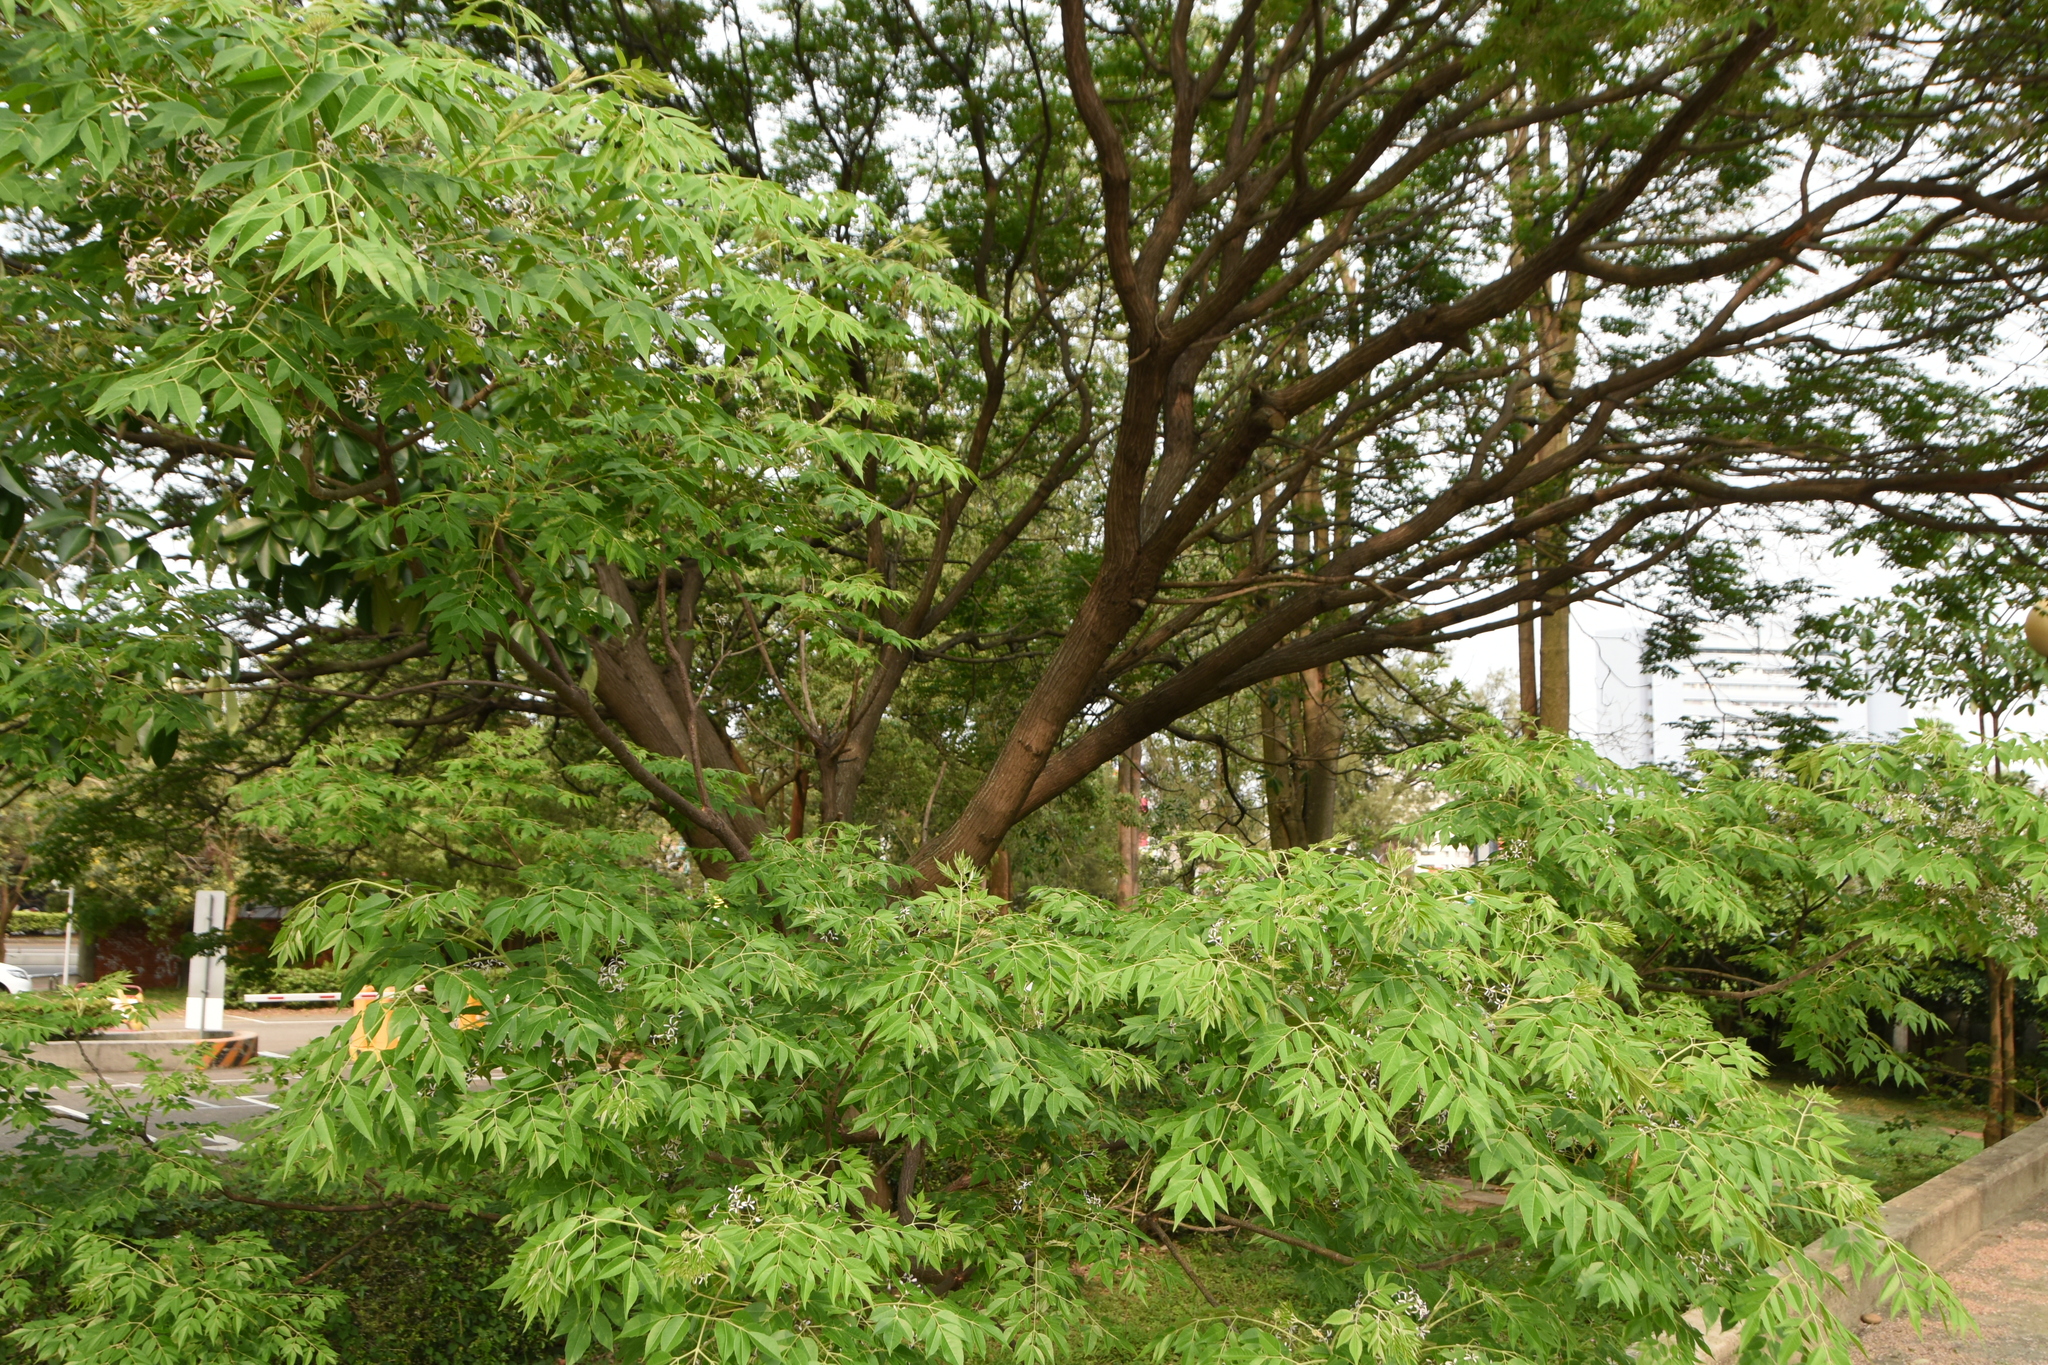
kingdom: Plantae
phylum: Tracheophyta
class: Magnoliopsida
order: Sapindales
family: Meliaceae
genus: Melia
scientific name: Melia azedarach
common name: Chinaberrytree
